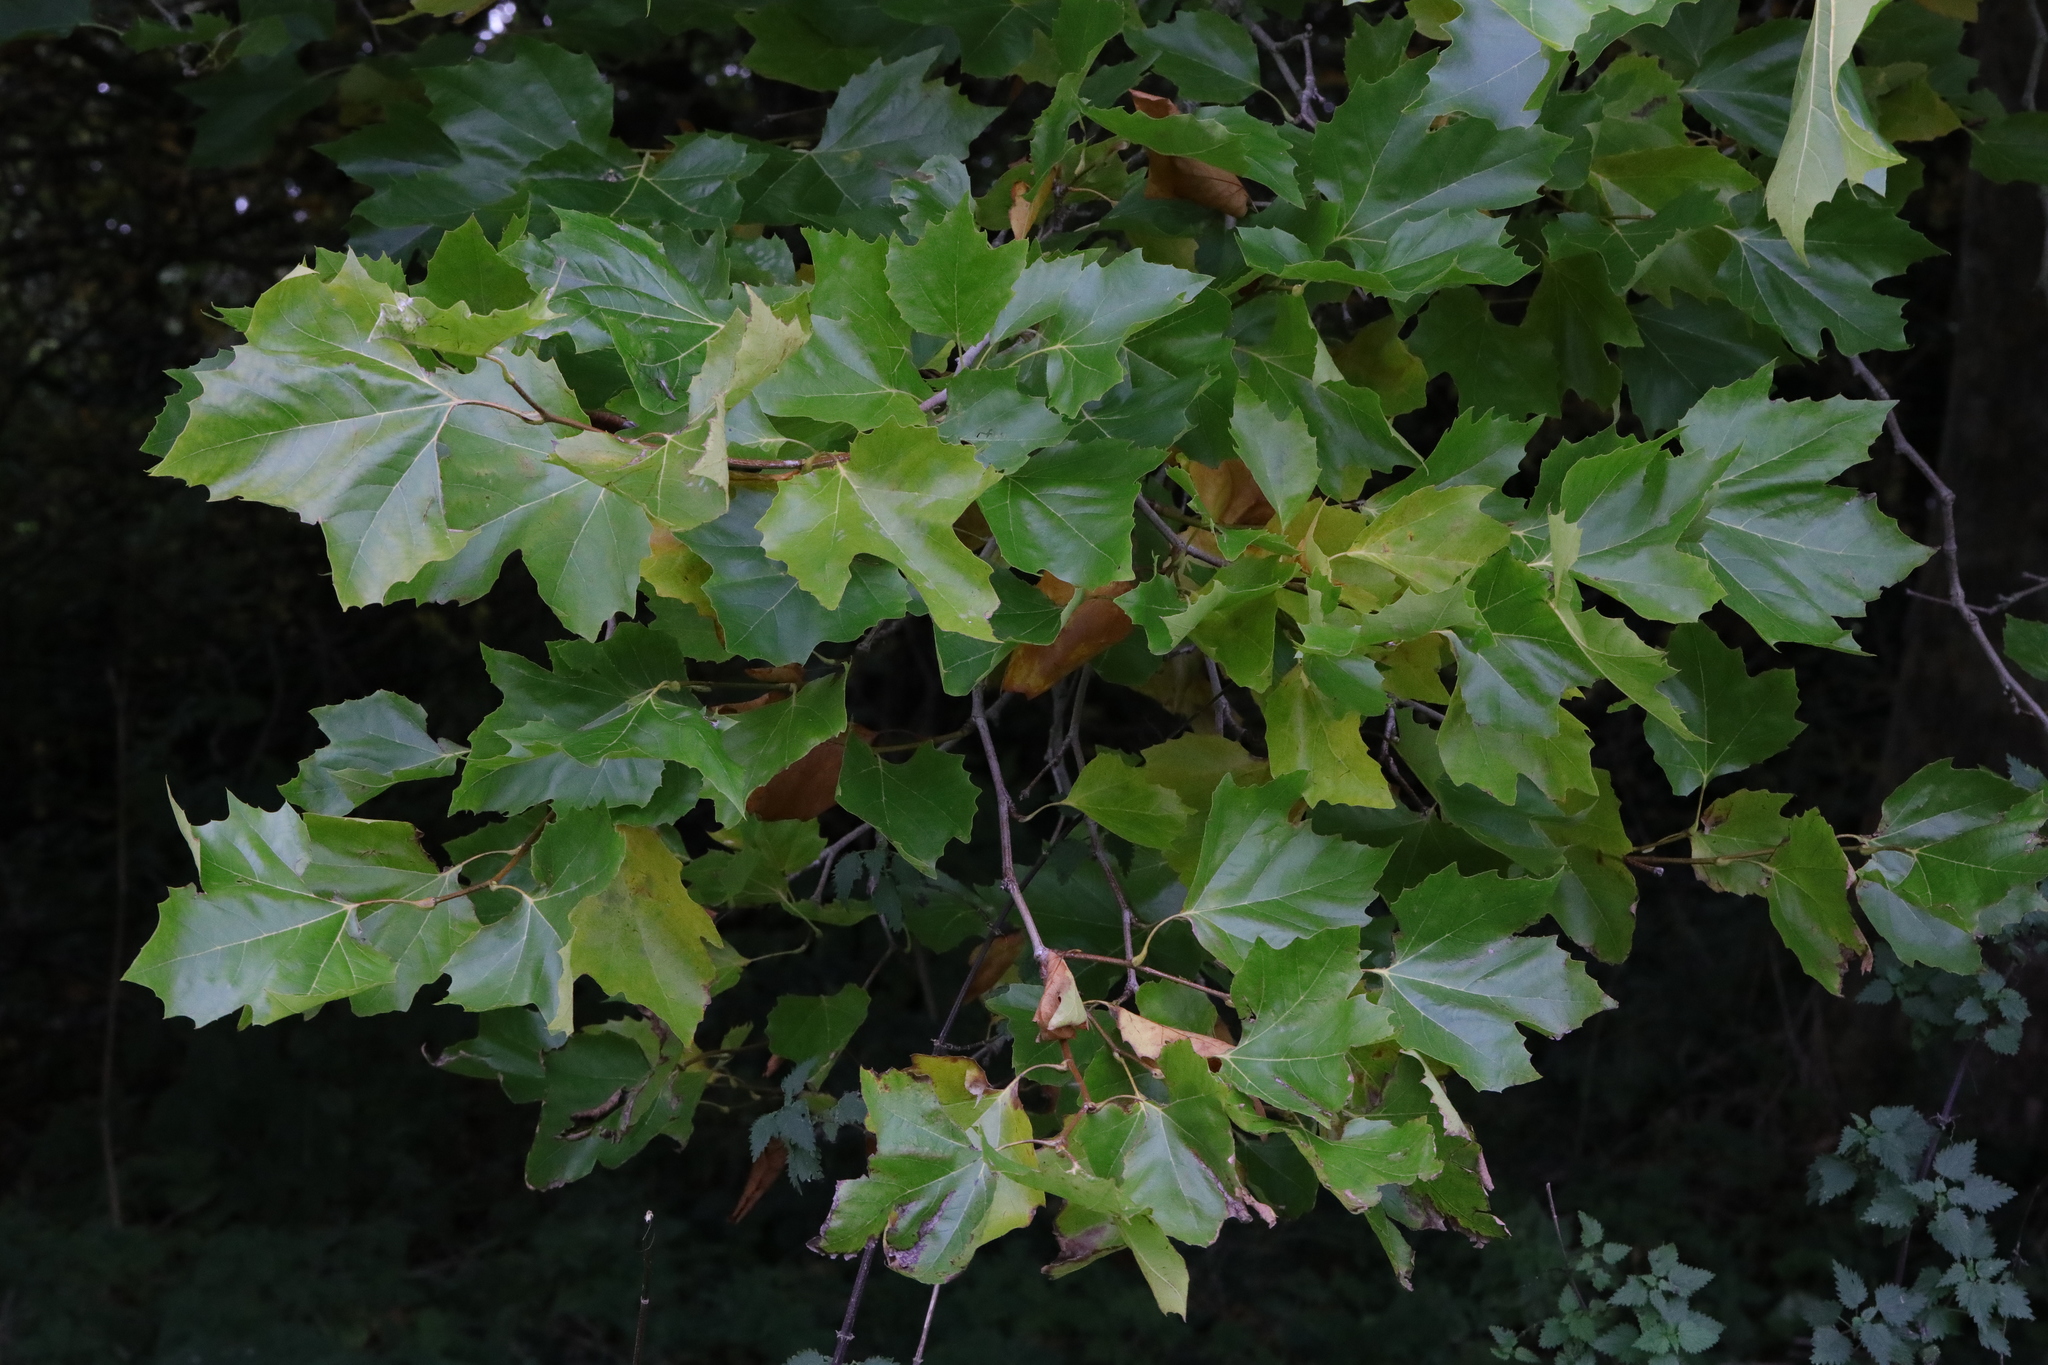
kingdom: Plantae
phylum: Tracheophyta
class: Magnoliopsida
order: Proteales
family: Platanaceae
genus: Platanus
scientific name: Platanus hispanica
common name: London plane
